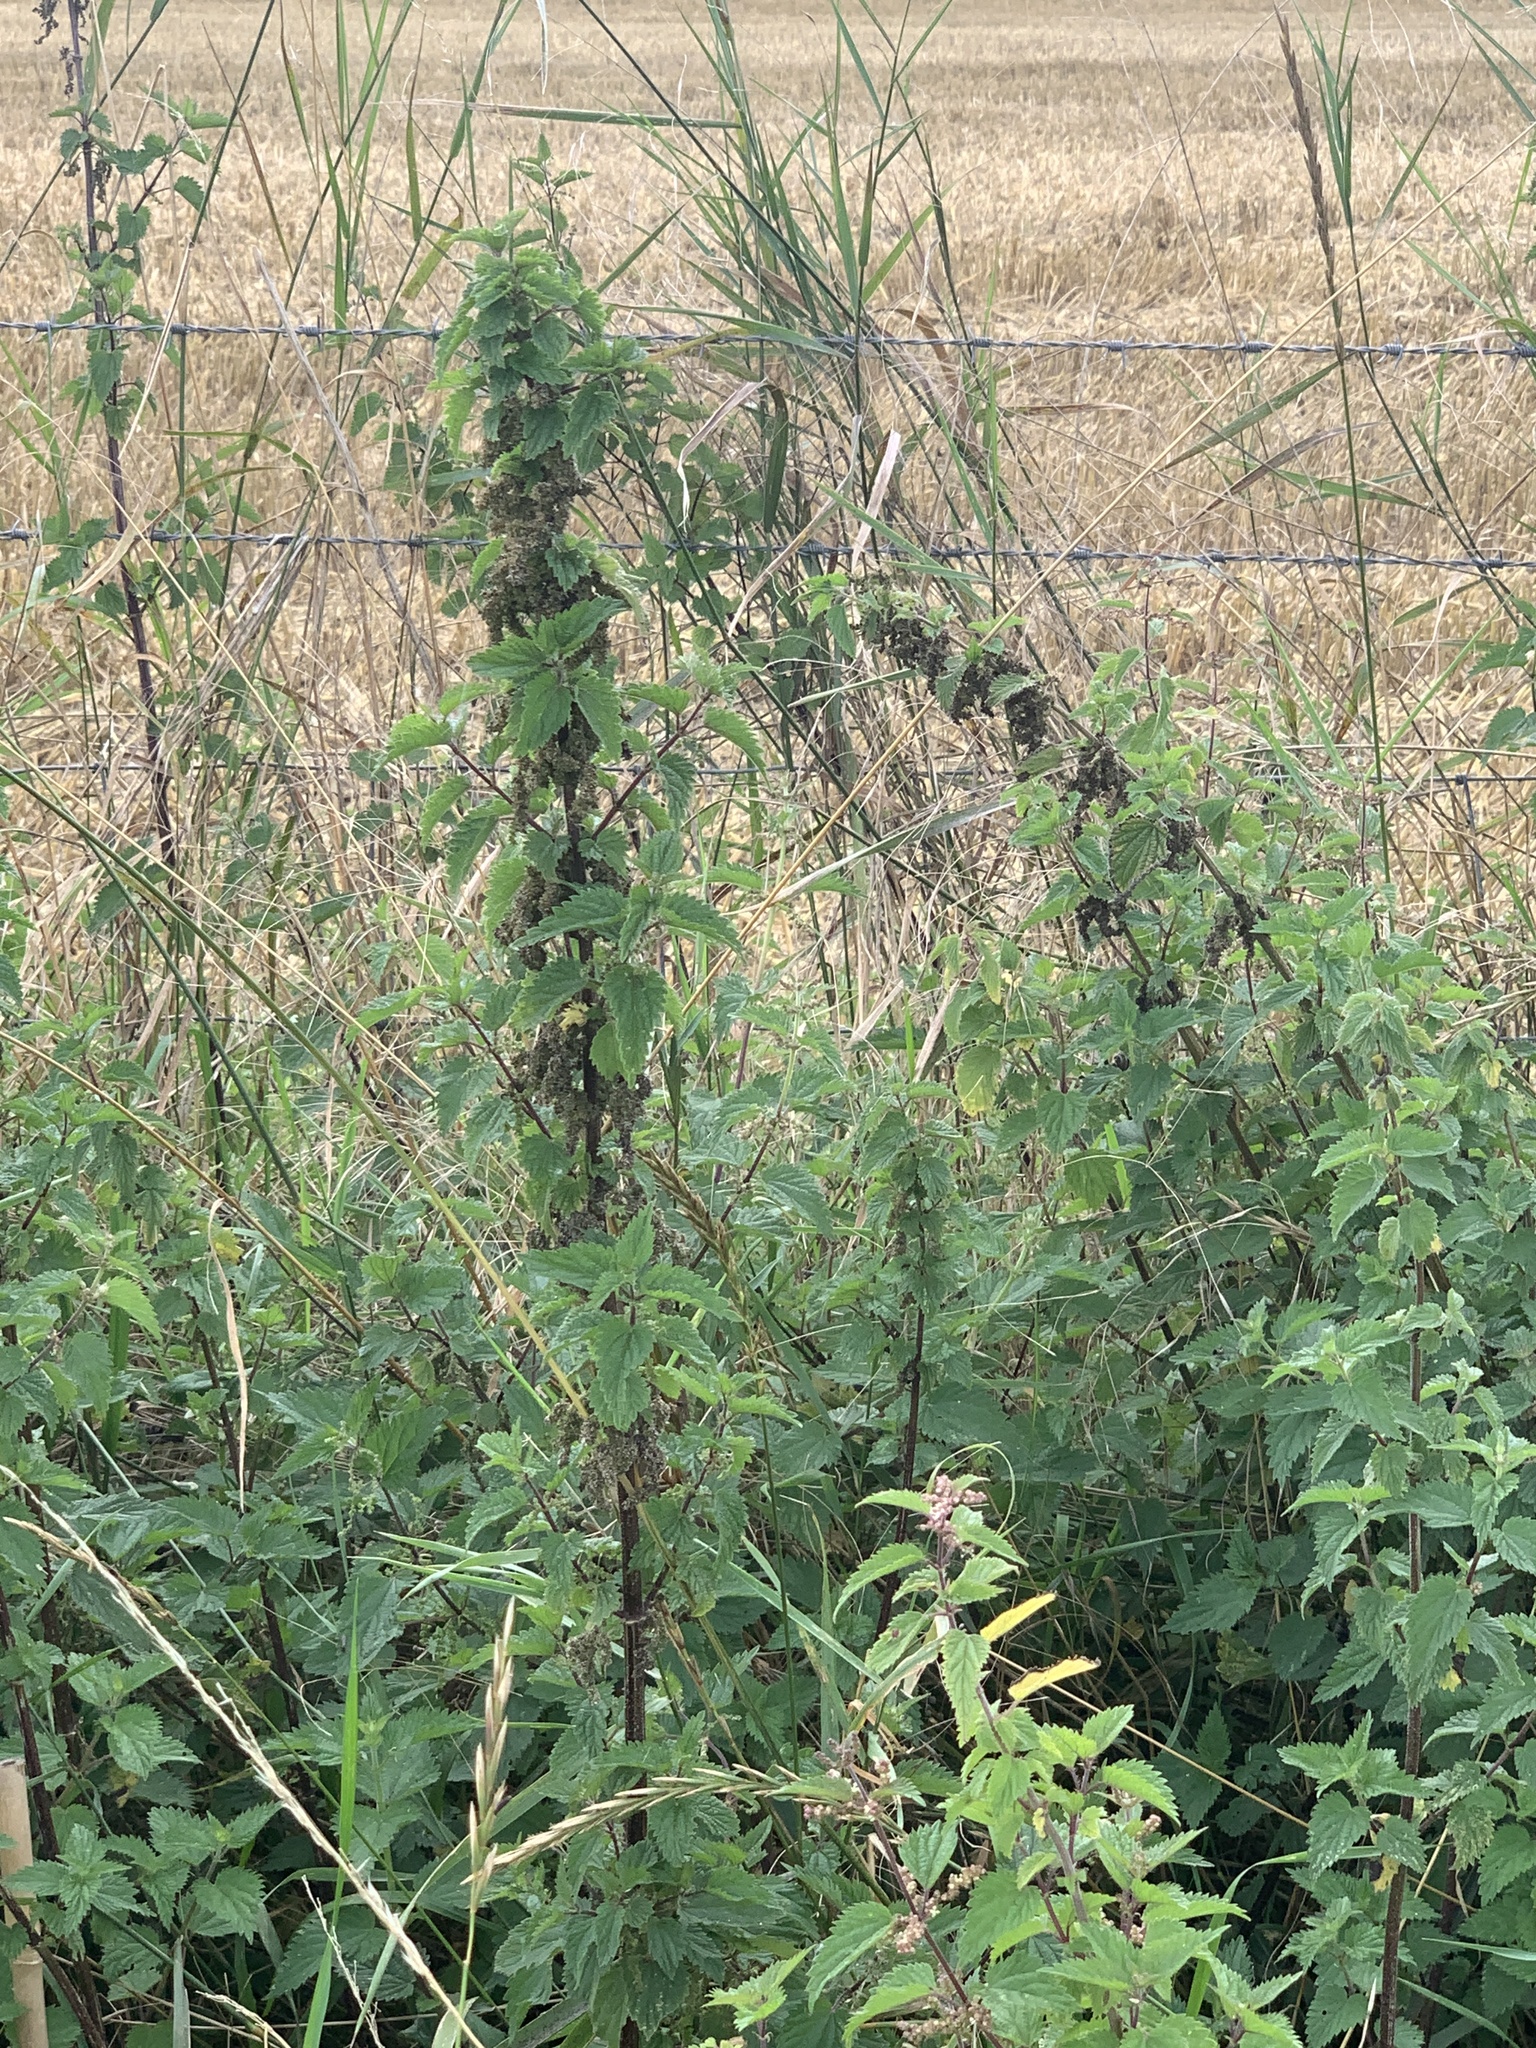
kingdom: Plantae
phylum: Tracheophyta
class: Magnoliopsida
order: Rosales
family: Urticaceae
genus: Urtica
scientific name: Urtica dioica
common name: Common nettle
